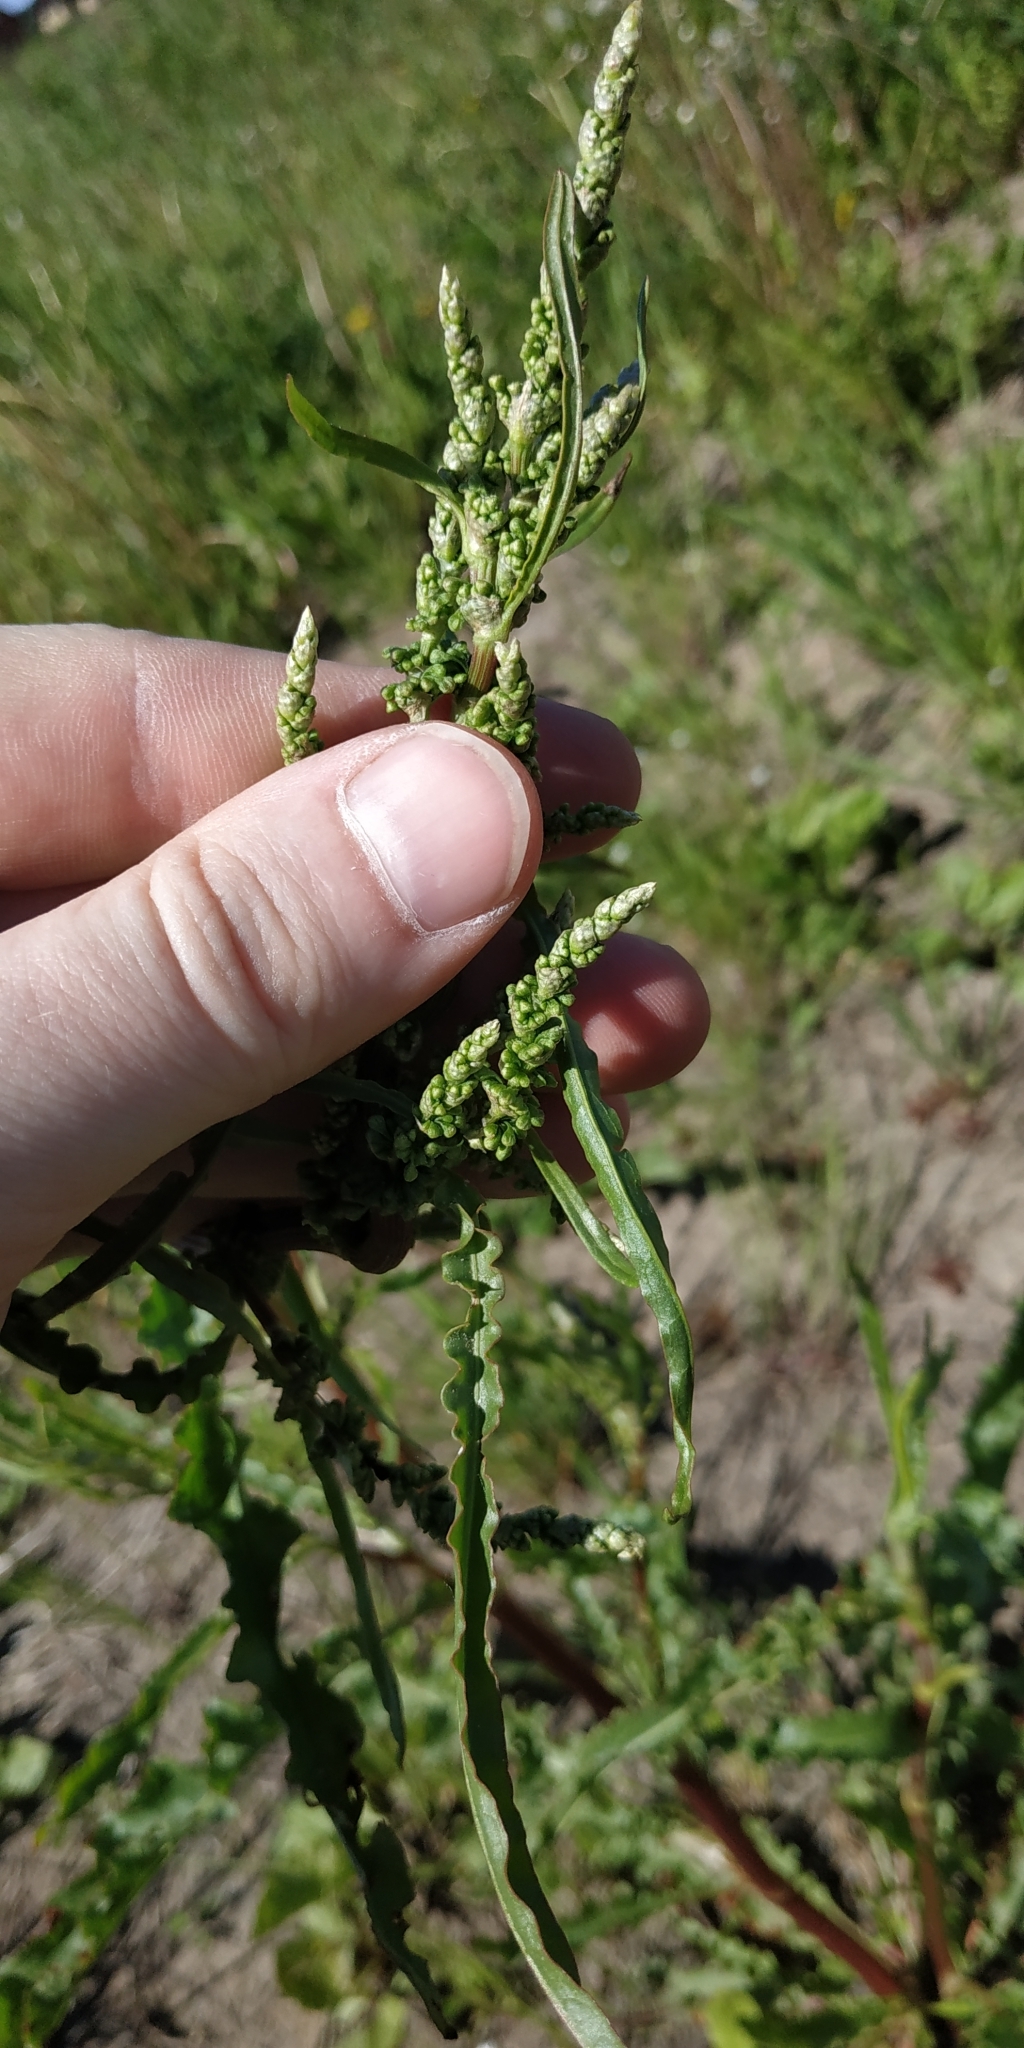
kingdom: Plantae
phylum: Tracheophyta
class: Magnoliopsida
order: Caryophyllales
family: Polygonaceae
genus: Rumex
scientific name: Rumex pseudonatronatus
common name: Field dock
